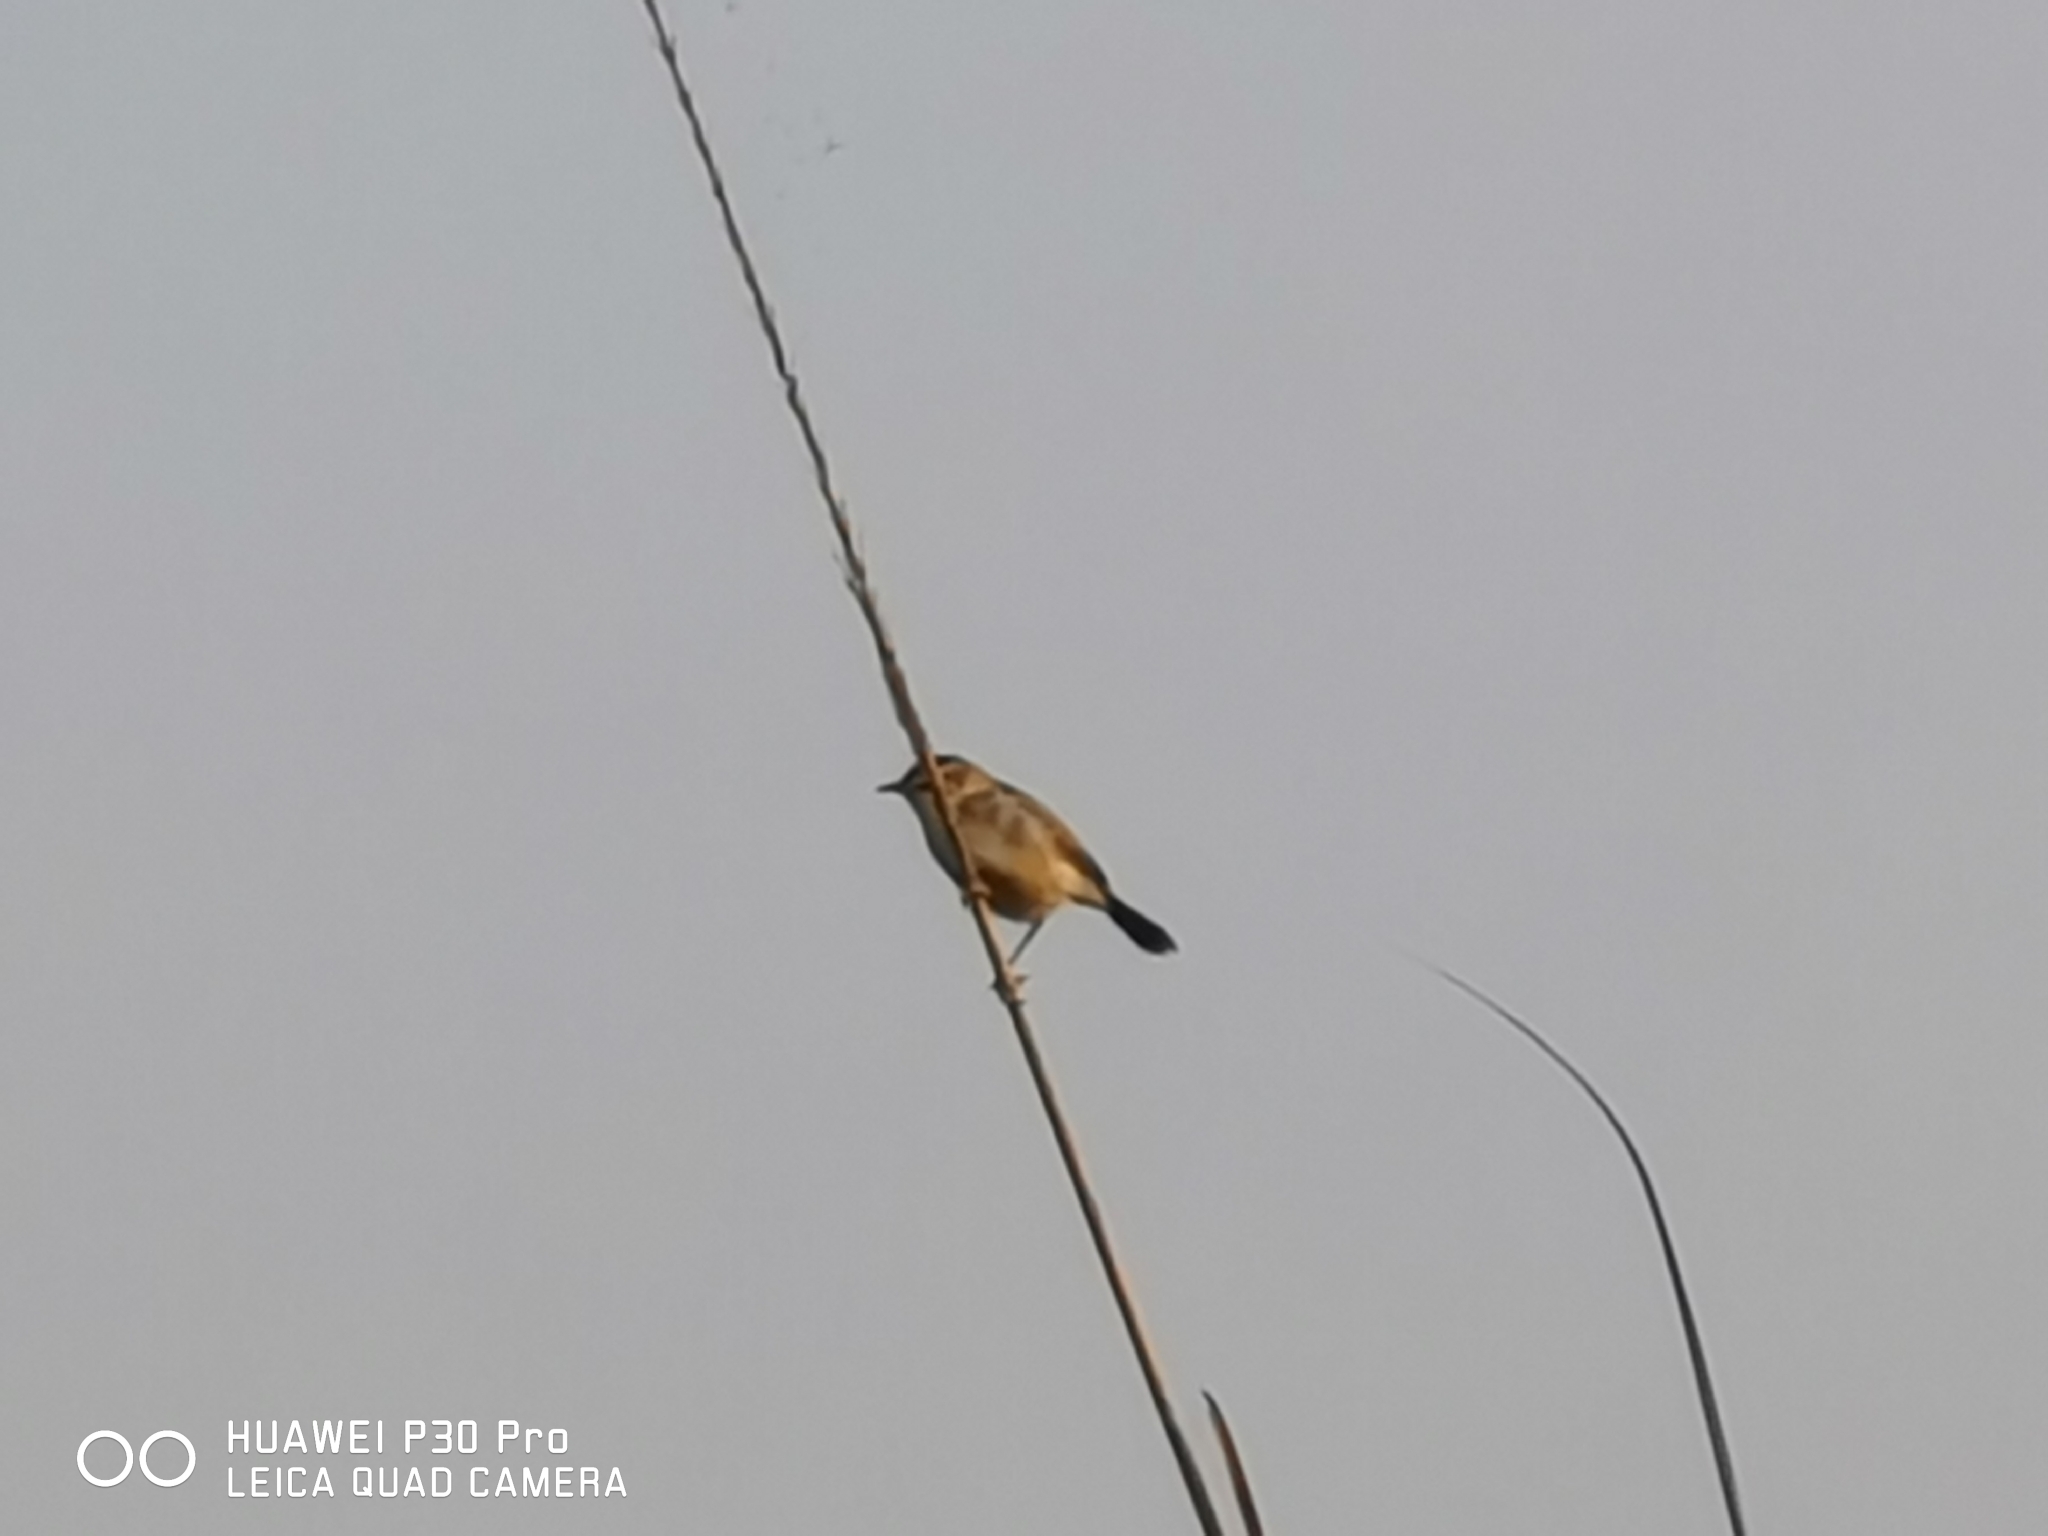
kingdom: Animalia
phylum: Chordata
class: Aves
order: Passeriformes
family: Cisticolidae
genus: Cisticola
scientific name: Cisticola juncidis
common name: Zitting cisticola
